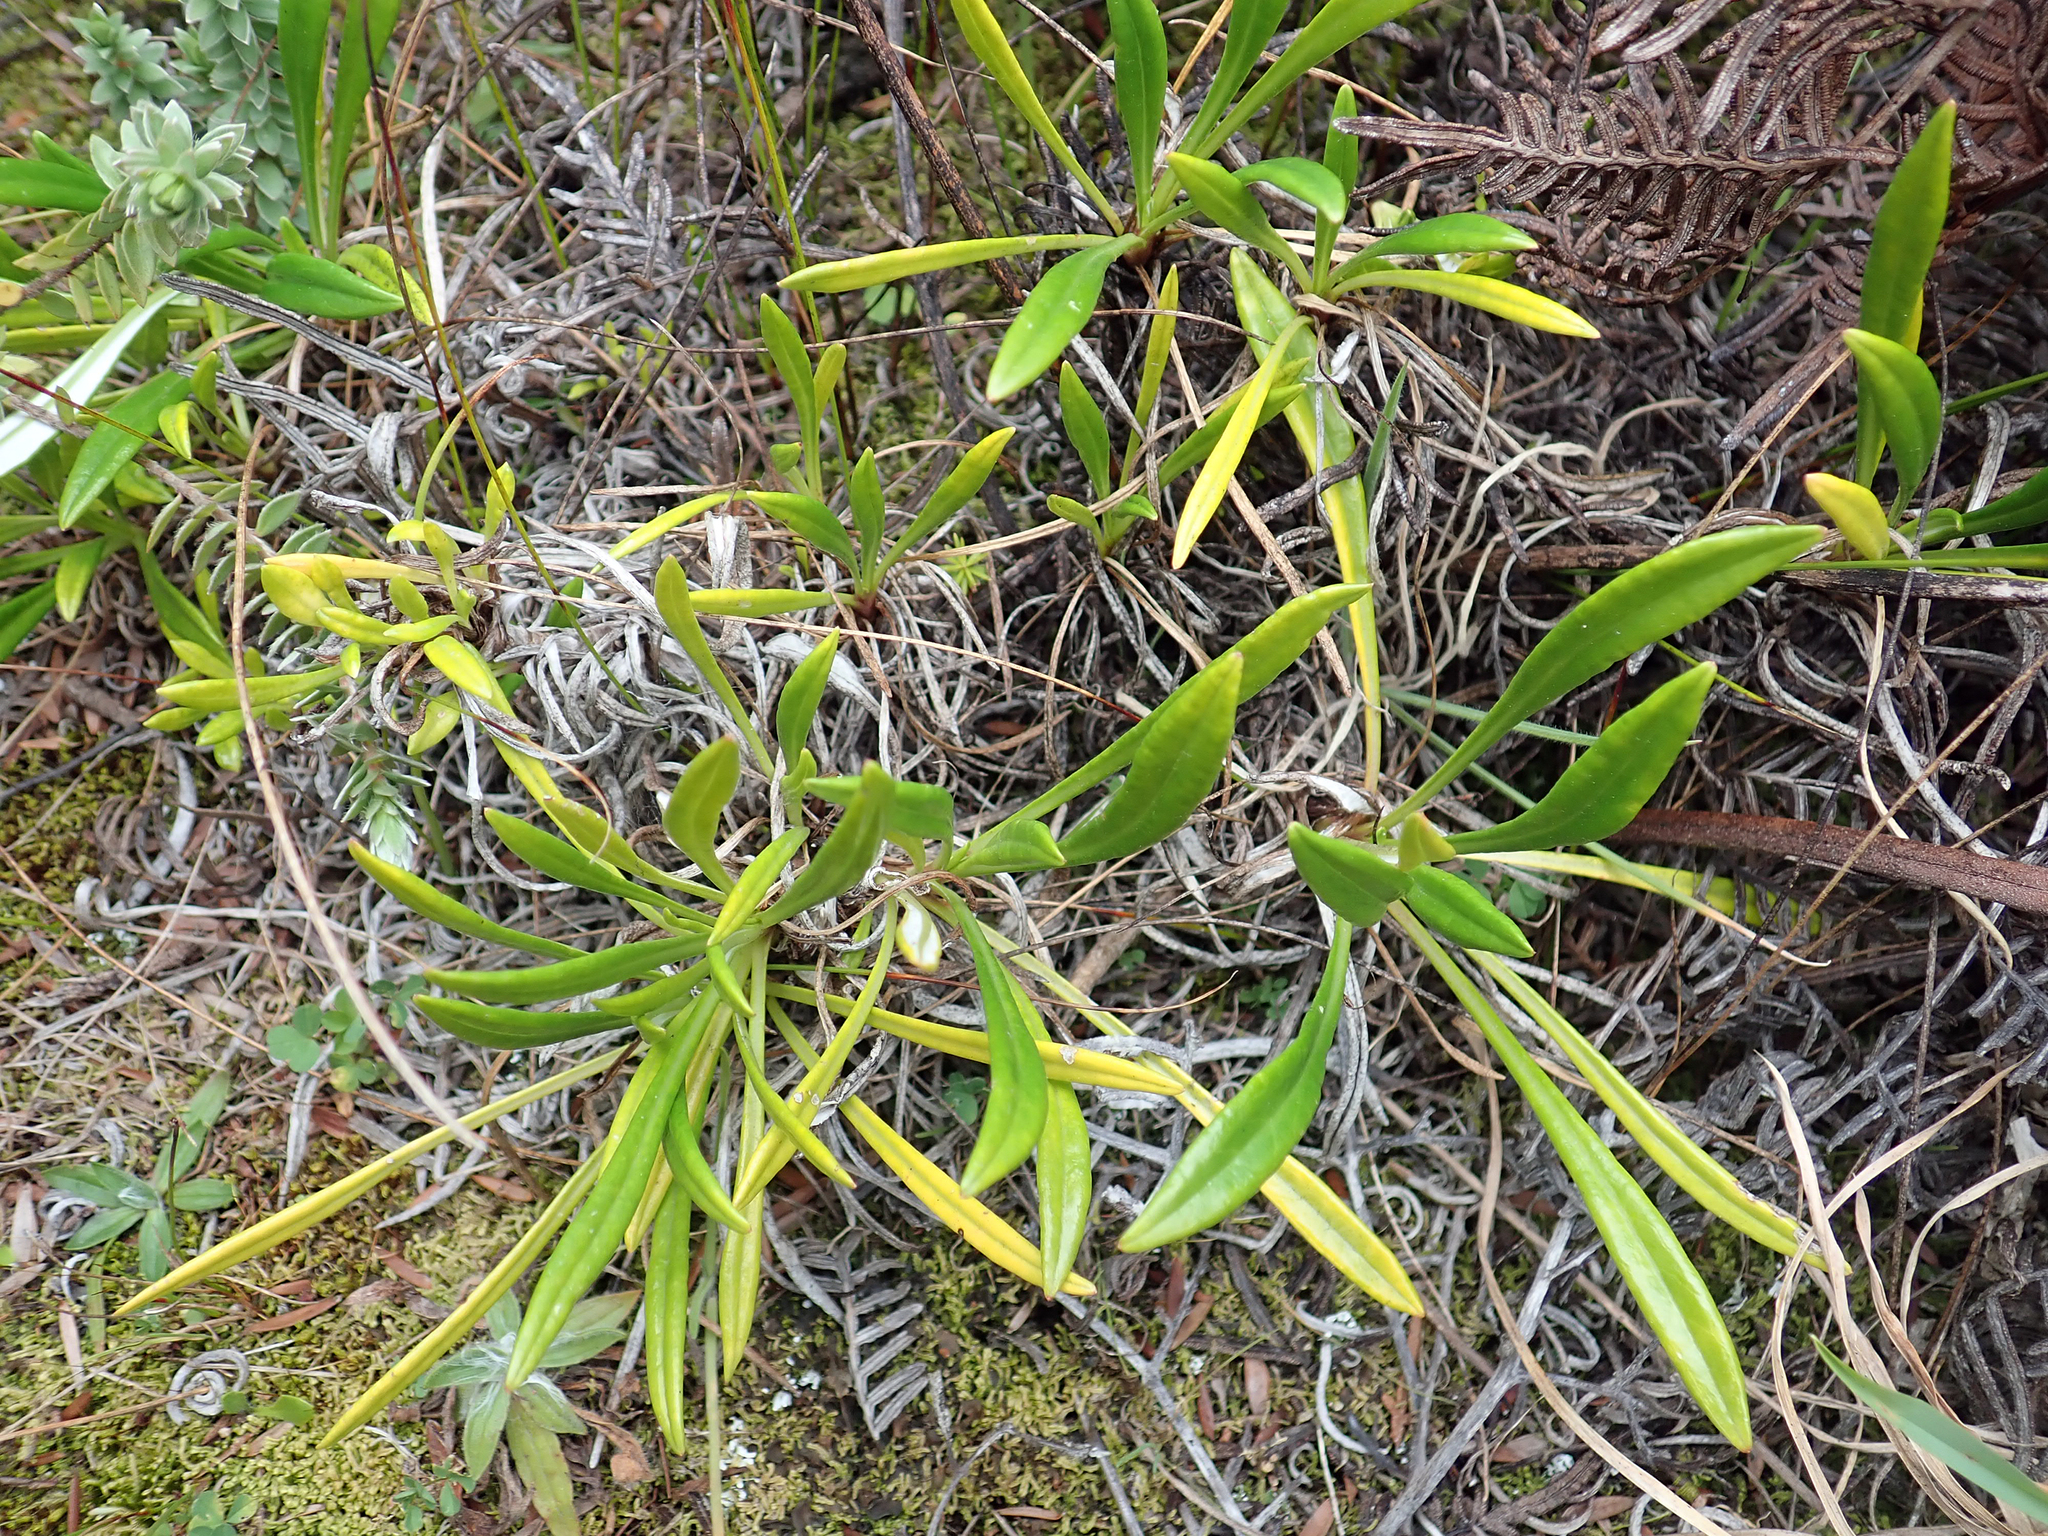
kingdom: Plantae
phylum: Tracheophyta
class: Magnoliopsida
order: Asterales
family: Asteraceae
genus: Gazania
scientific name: Gazania rigens
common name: Treasureflower
